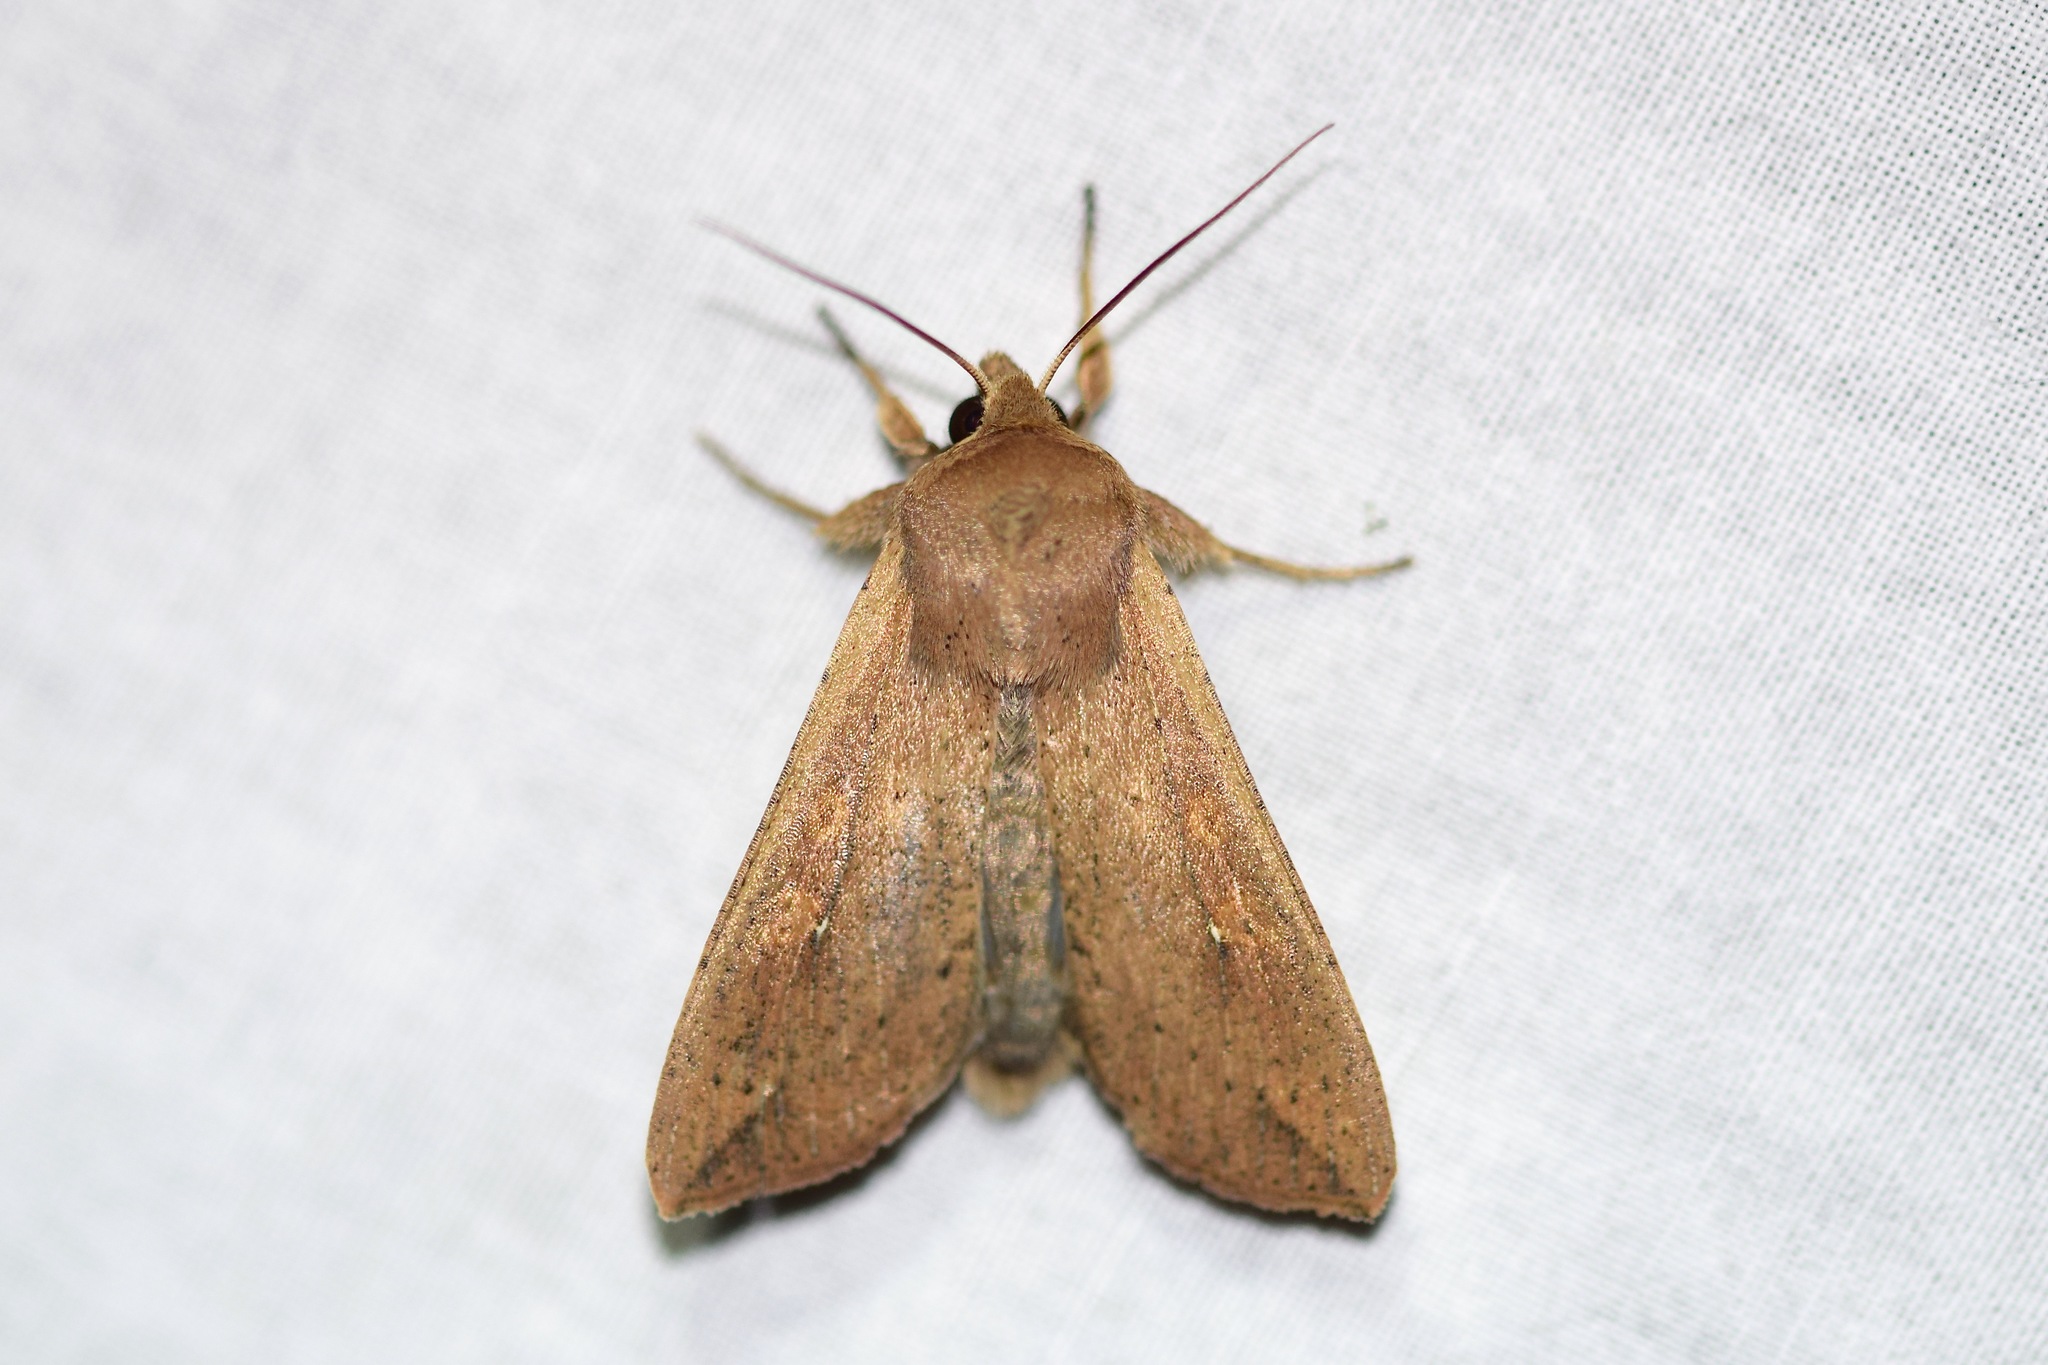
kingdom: Animalia
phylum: Arthropoda
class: Insecta
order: Lepidoptera
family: Noctuidae
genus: Mythimna
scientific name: Mythimna unipuncta
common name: White-speck
